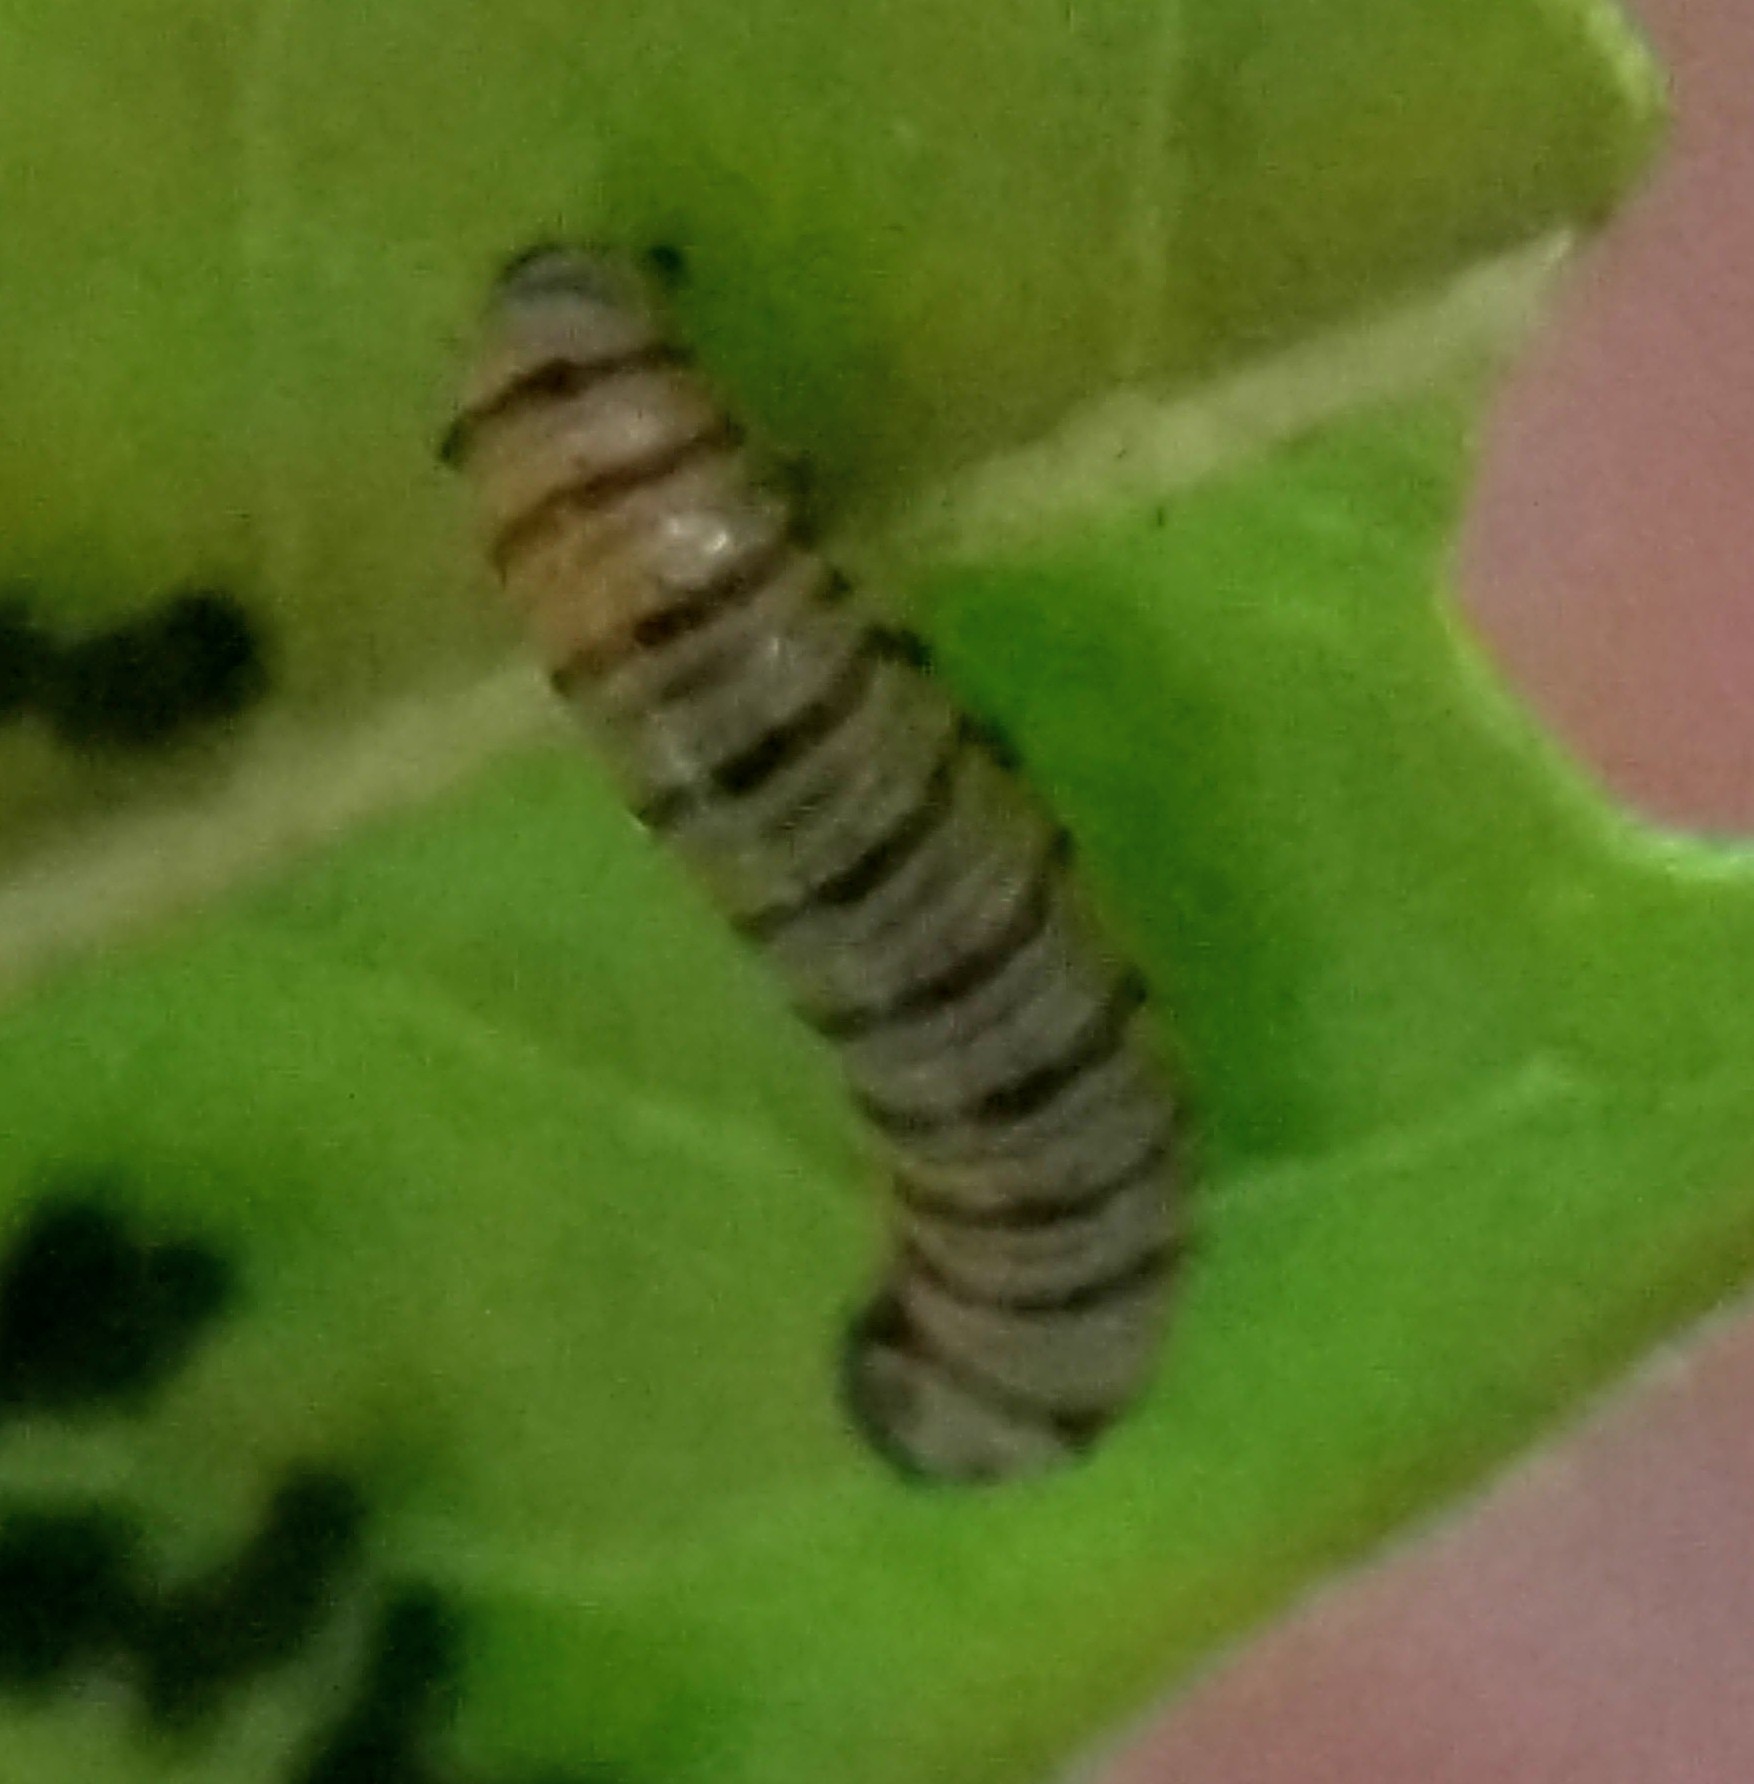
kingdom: Animalia
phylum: Arthropoda
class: Insecta
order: Lepidoptera
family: Nymphalidae
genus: Danaus
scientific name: Danaus plexippus
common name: Monarch
